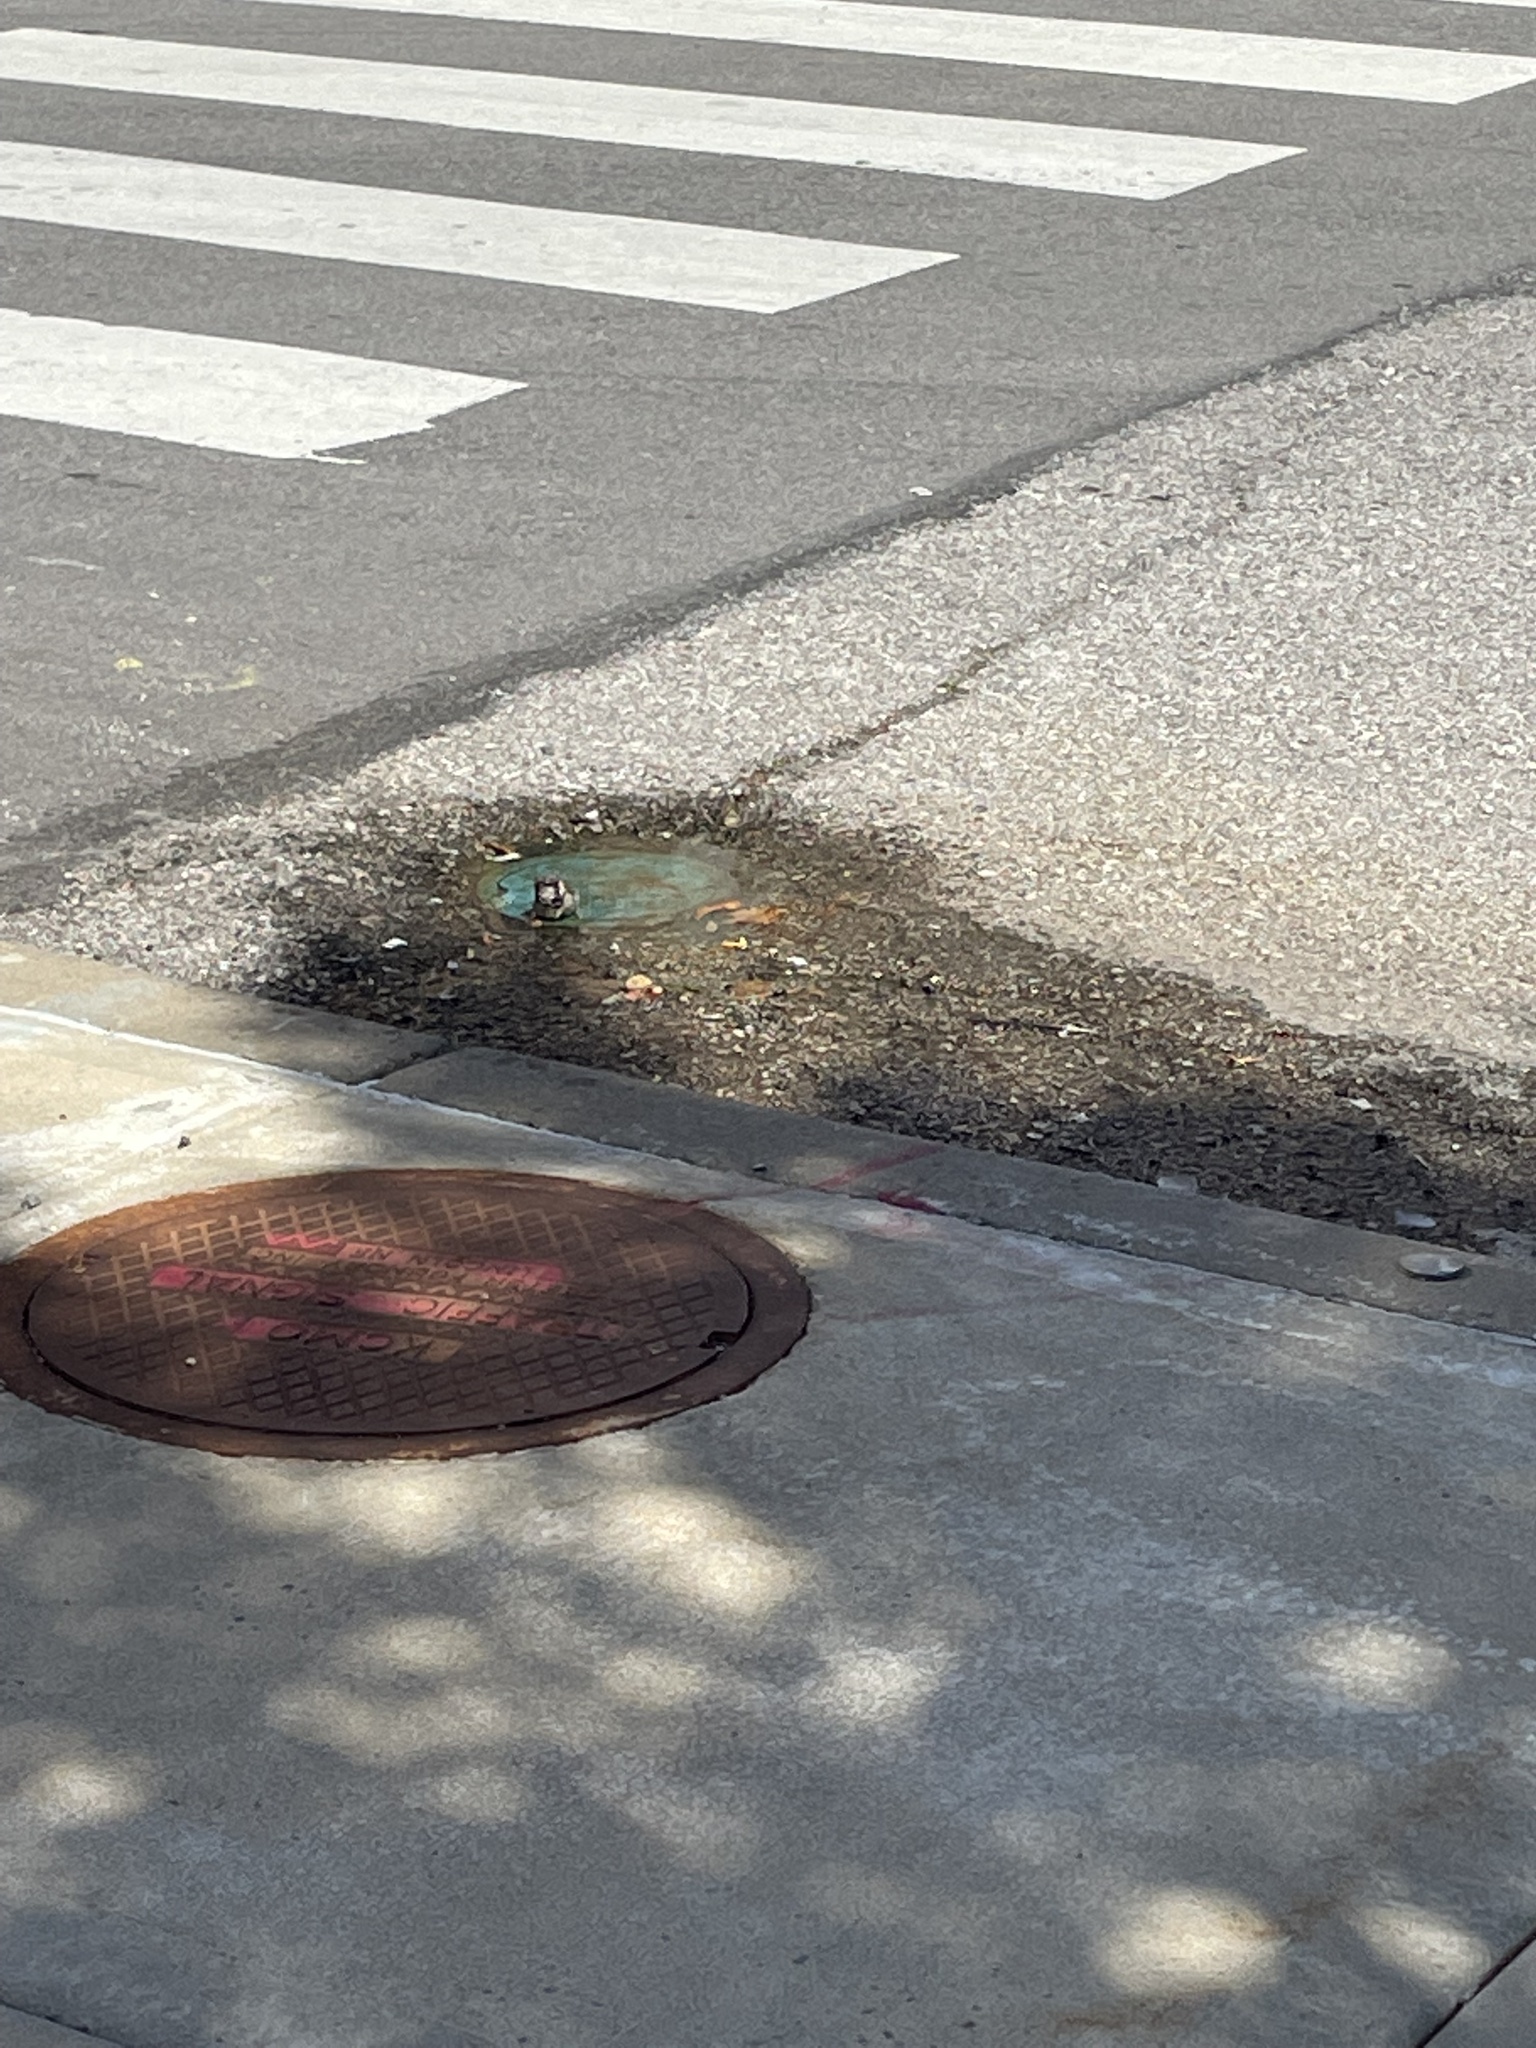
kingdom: Animalia
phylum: Chordata
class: Aves
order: Passeriformes
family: Passeridae
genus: Passer
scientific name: Passer domesticus
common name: House sparrow
